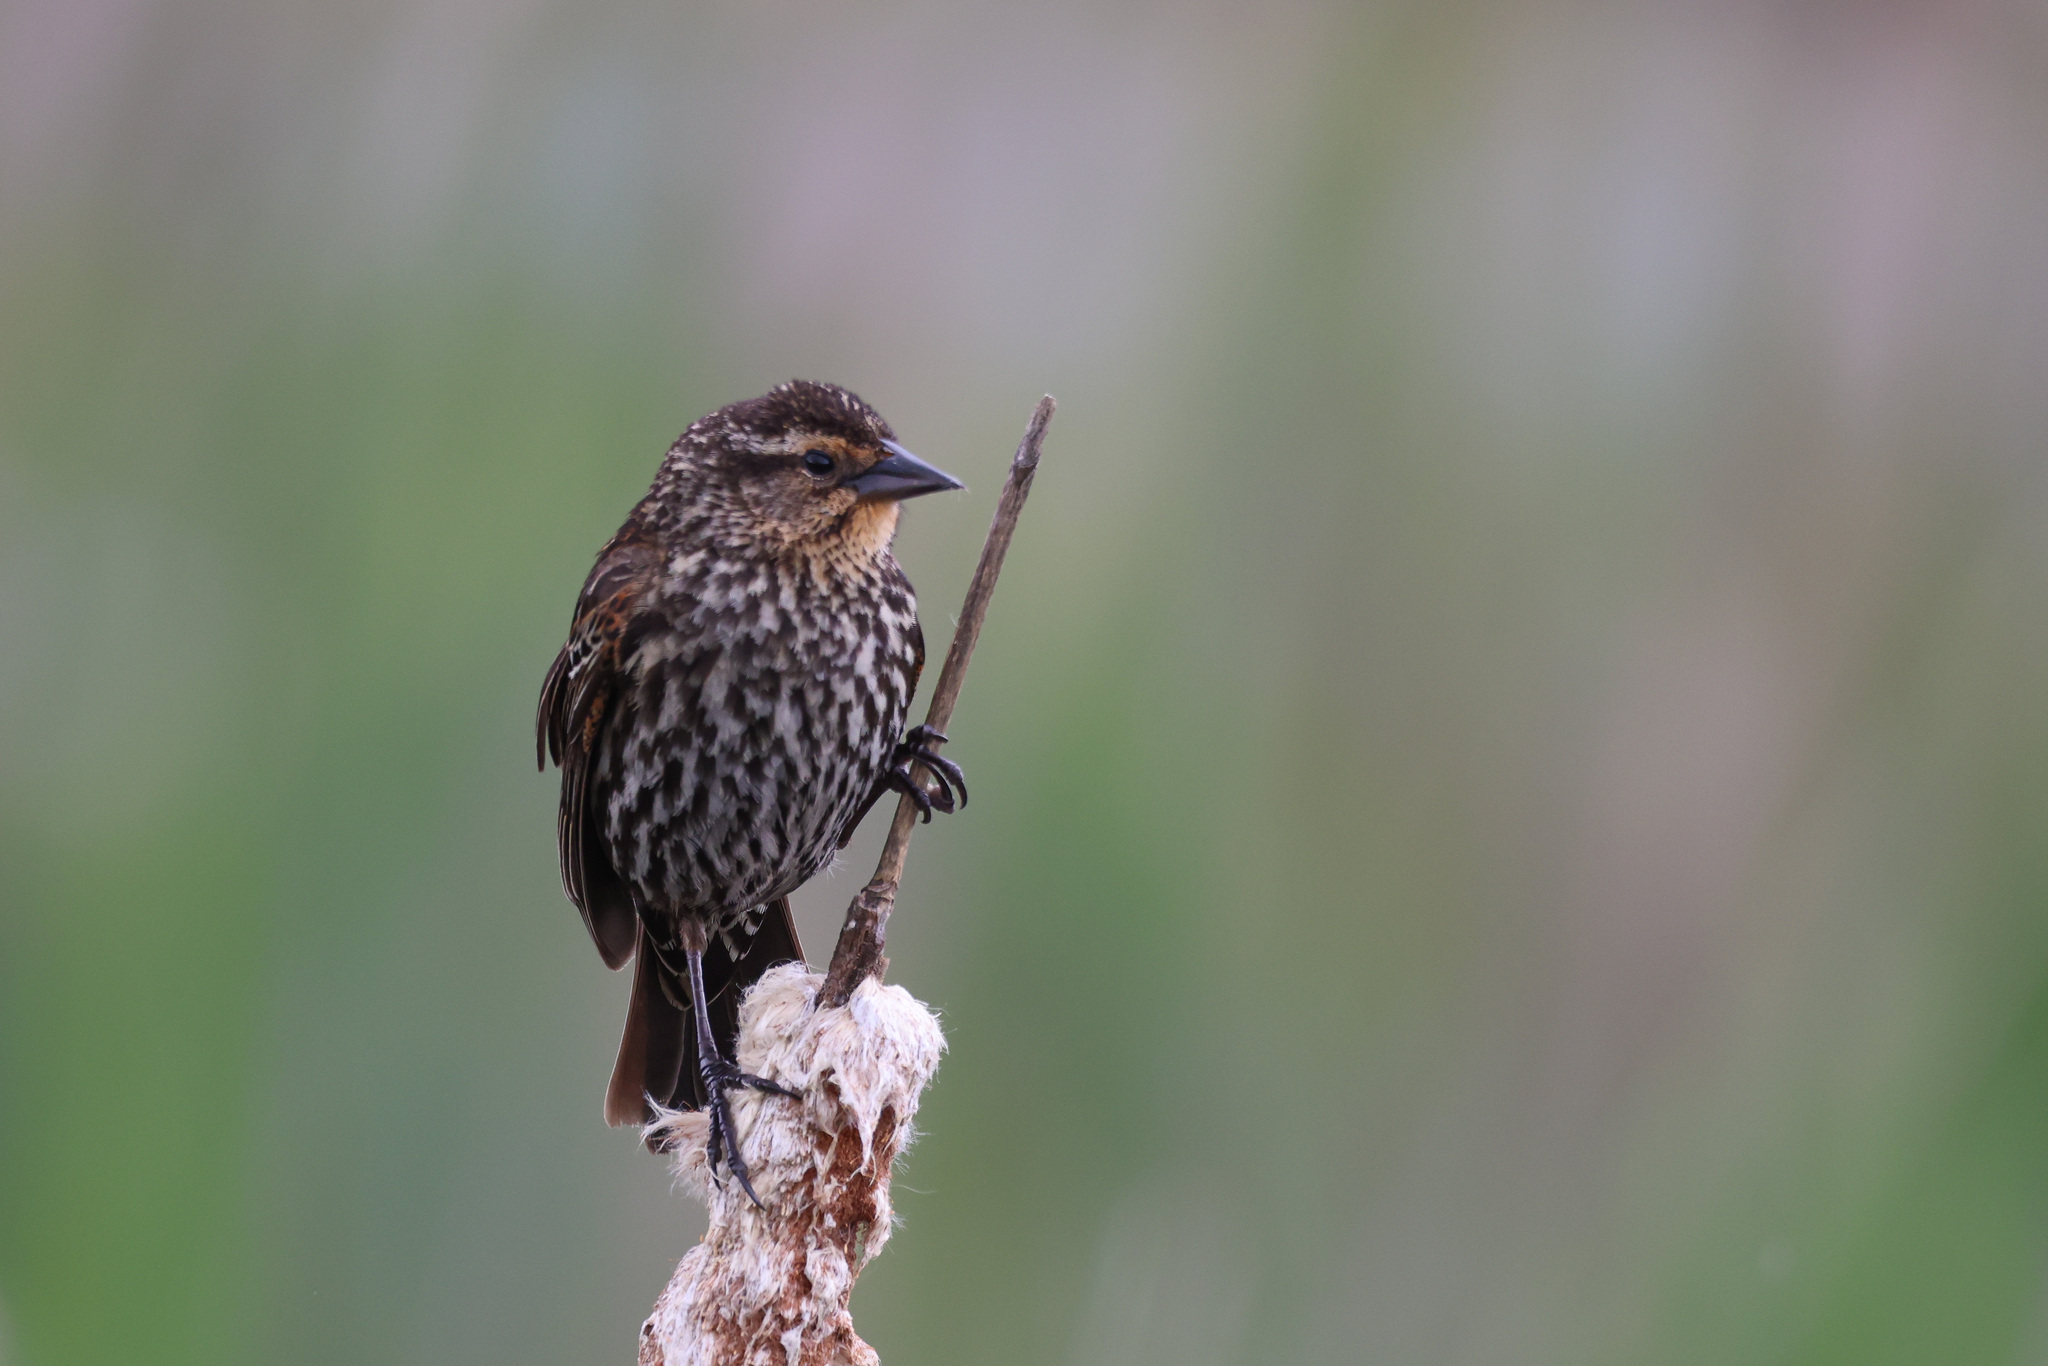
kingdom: Animalia
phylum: Chordata
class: Aves
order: Passeriformes
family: Icteridae
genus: Agelaius
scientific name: Agelaius phoeniceus
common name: Red-winged blackbird
